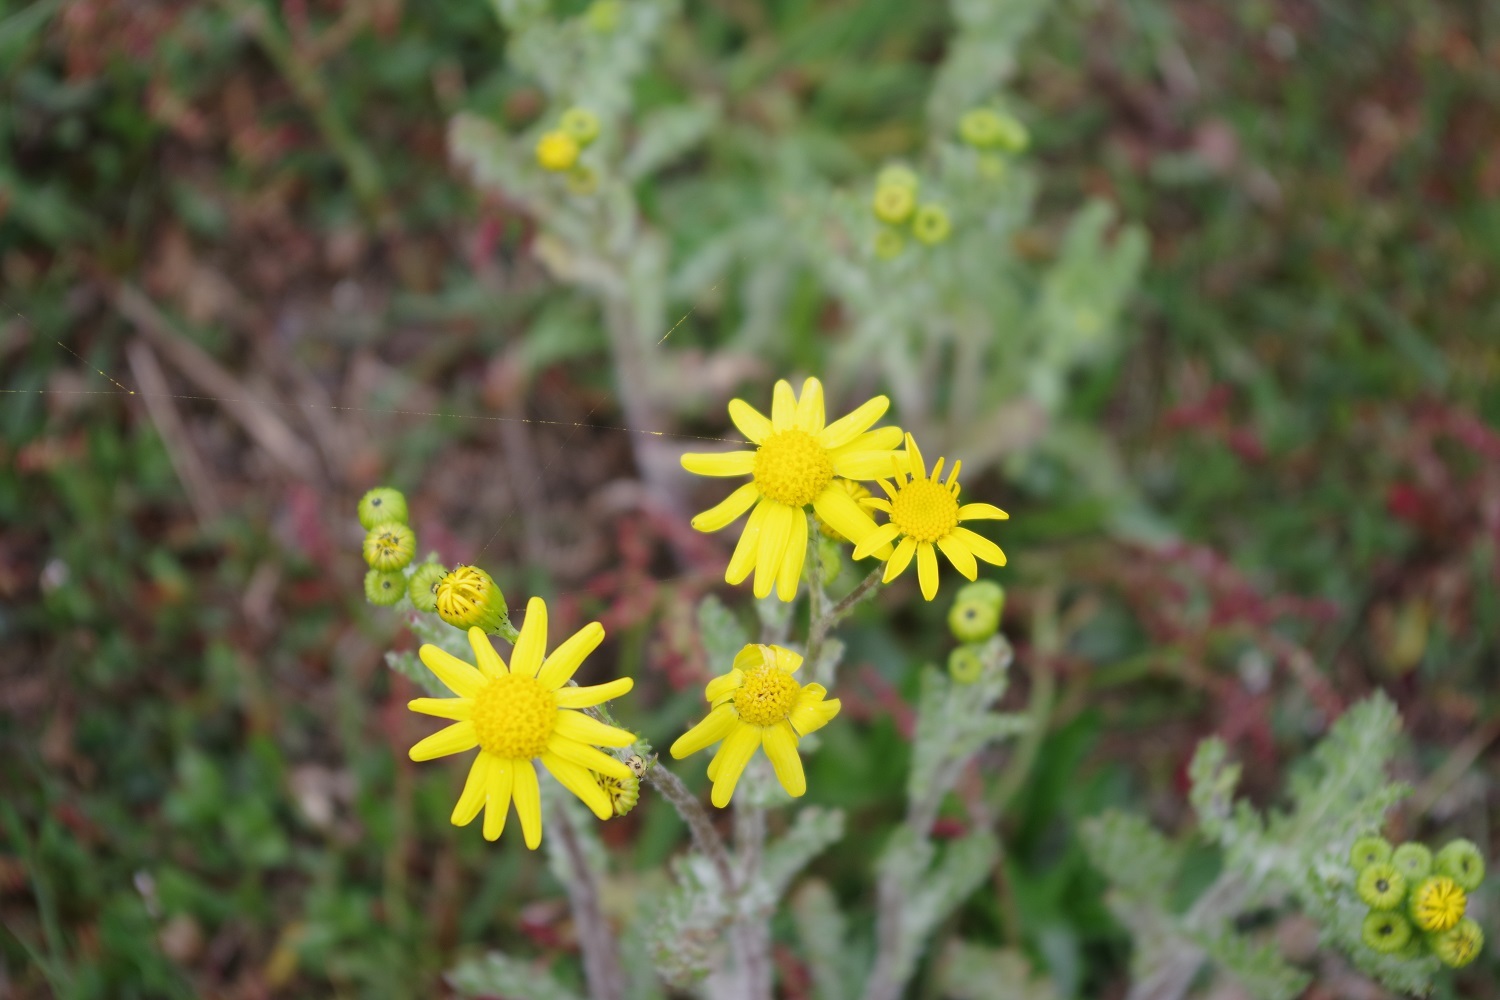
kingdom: Plantae
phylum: Tracheophyta
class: Magnoliopsida
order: Asterales
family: Asteraceae
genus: Senecio
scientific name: Senecio vernalis
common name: Eastern groundsel
